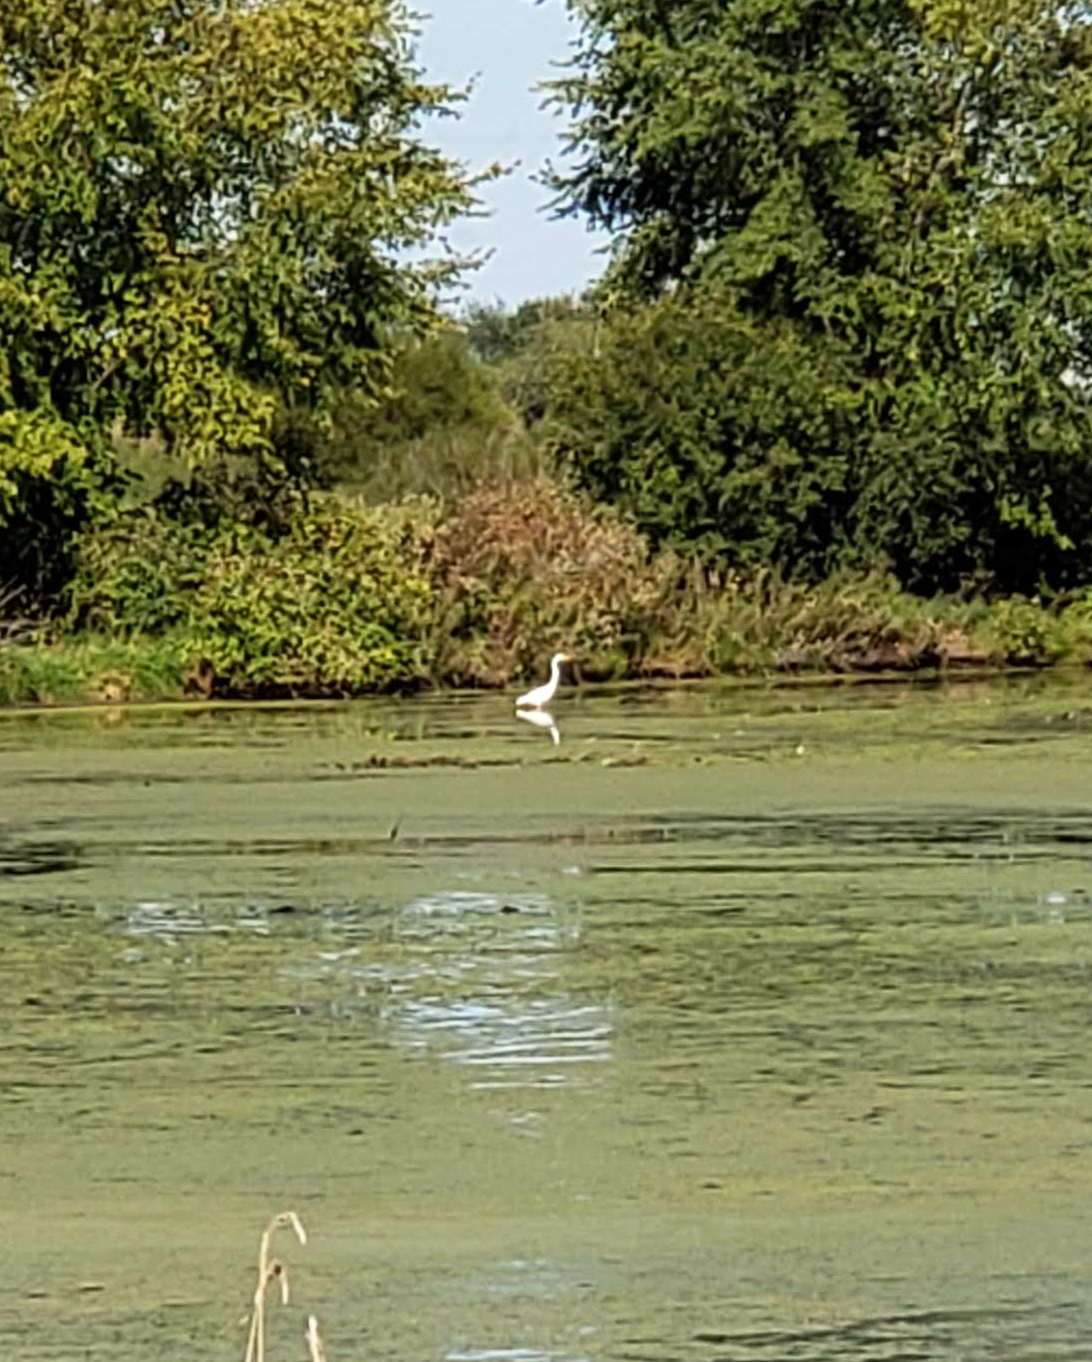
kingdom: Animalia
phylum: Chordata
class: Aves
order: Pelecaniformes
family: Ardeidae
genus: Ardea
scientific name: Ardea alba
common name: Great egret
